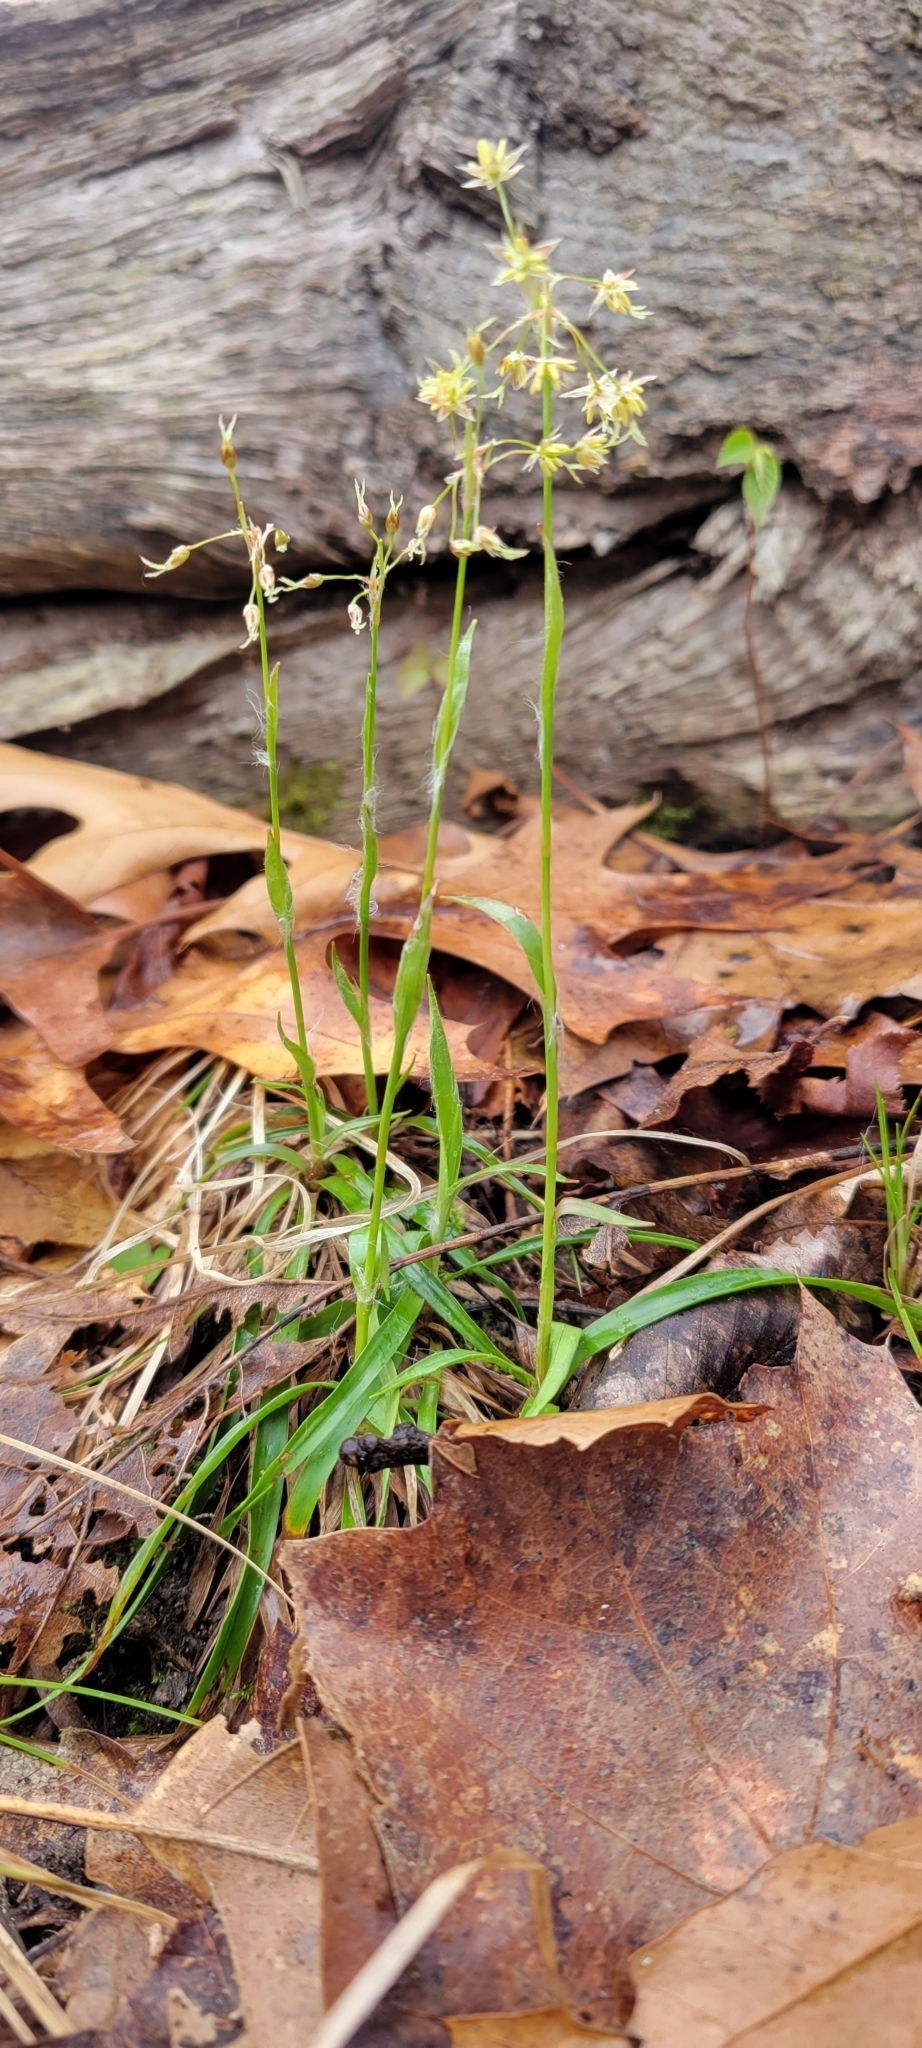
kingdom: Plantae
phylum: Tracheophyta
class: Liliopsida
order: Poales
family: Juncaceae
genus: Luzula
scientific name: Luzula acuminata
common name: Hairy woodrush
